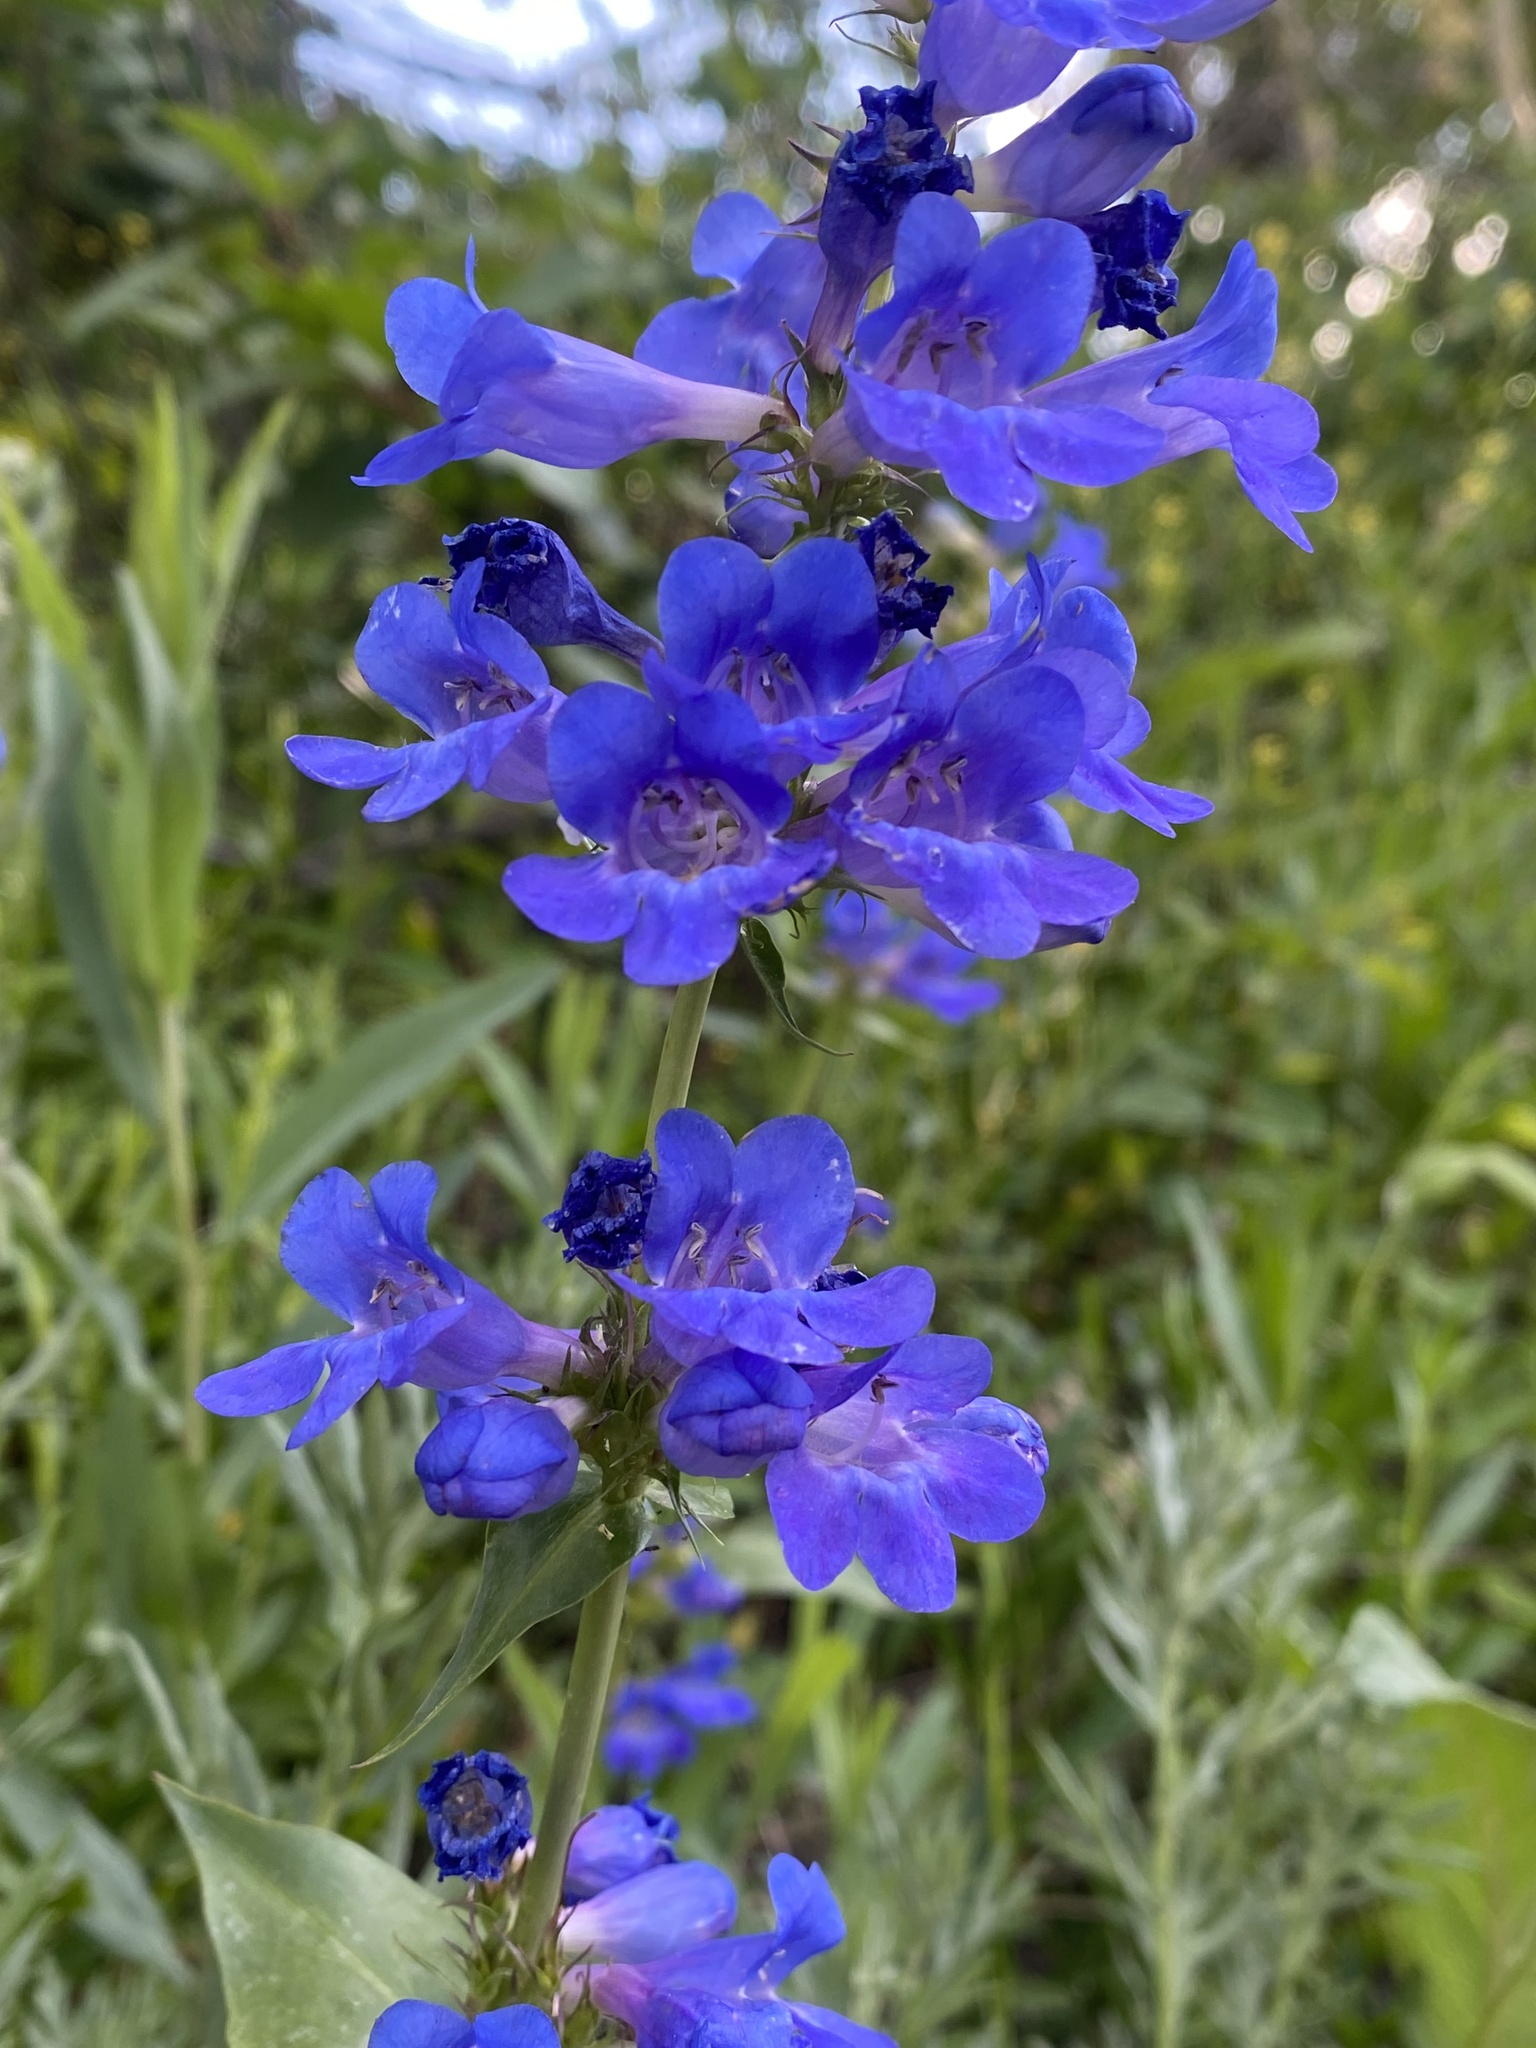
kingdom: Plantae
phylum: Tracheophyta
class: Magnoliopsida
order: Lamiales
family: Plantaginaceae
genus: Penstemon
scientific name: Penstemon cyananthus
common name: Wasatch penstemon
